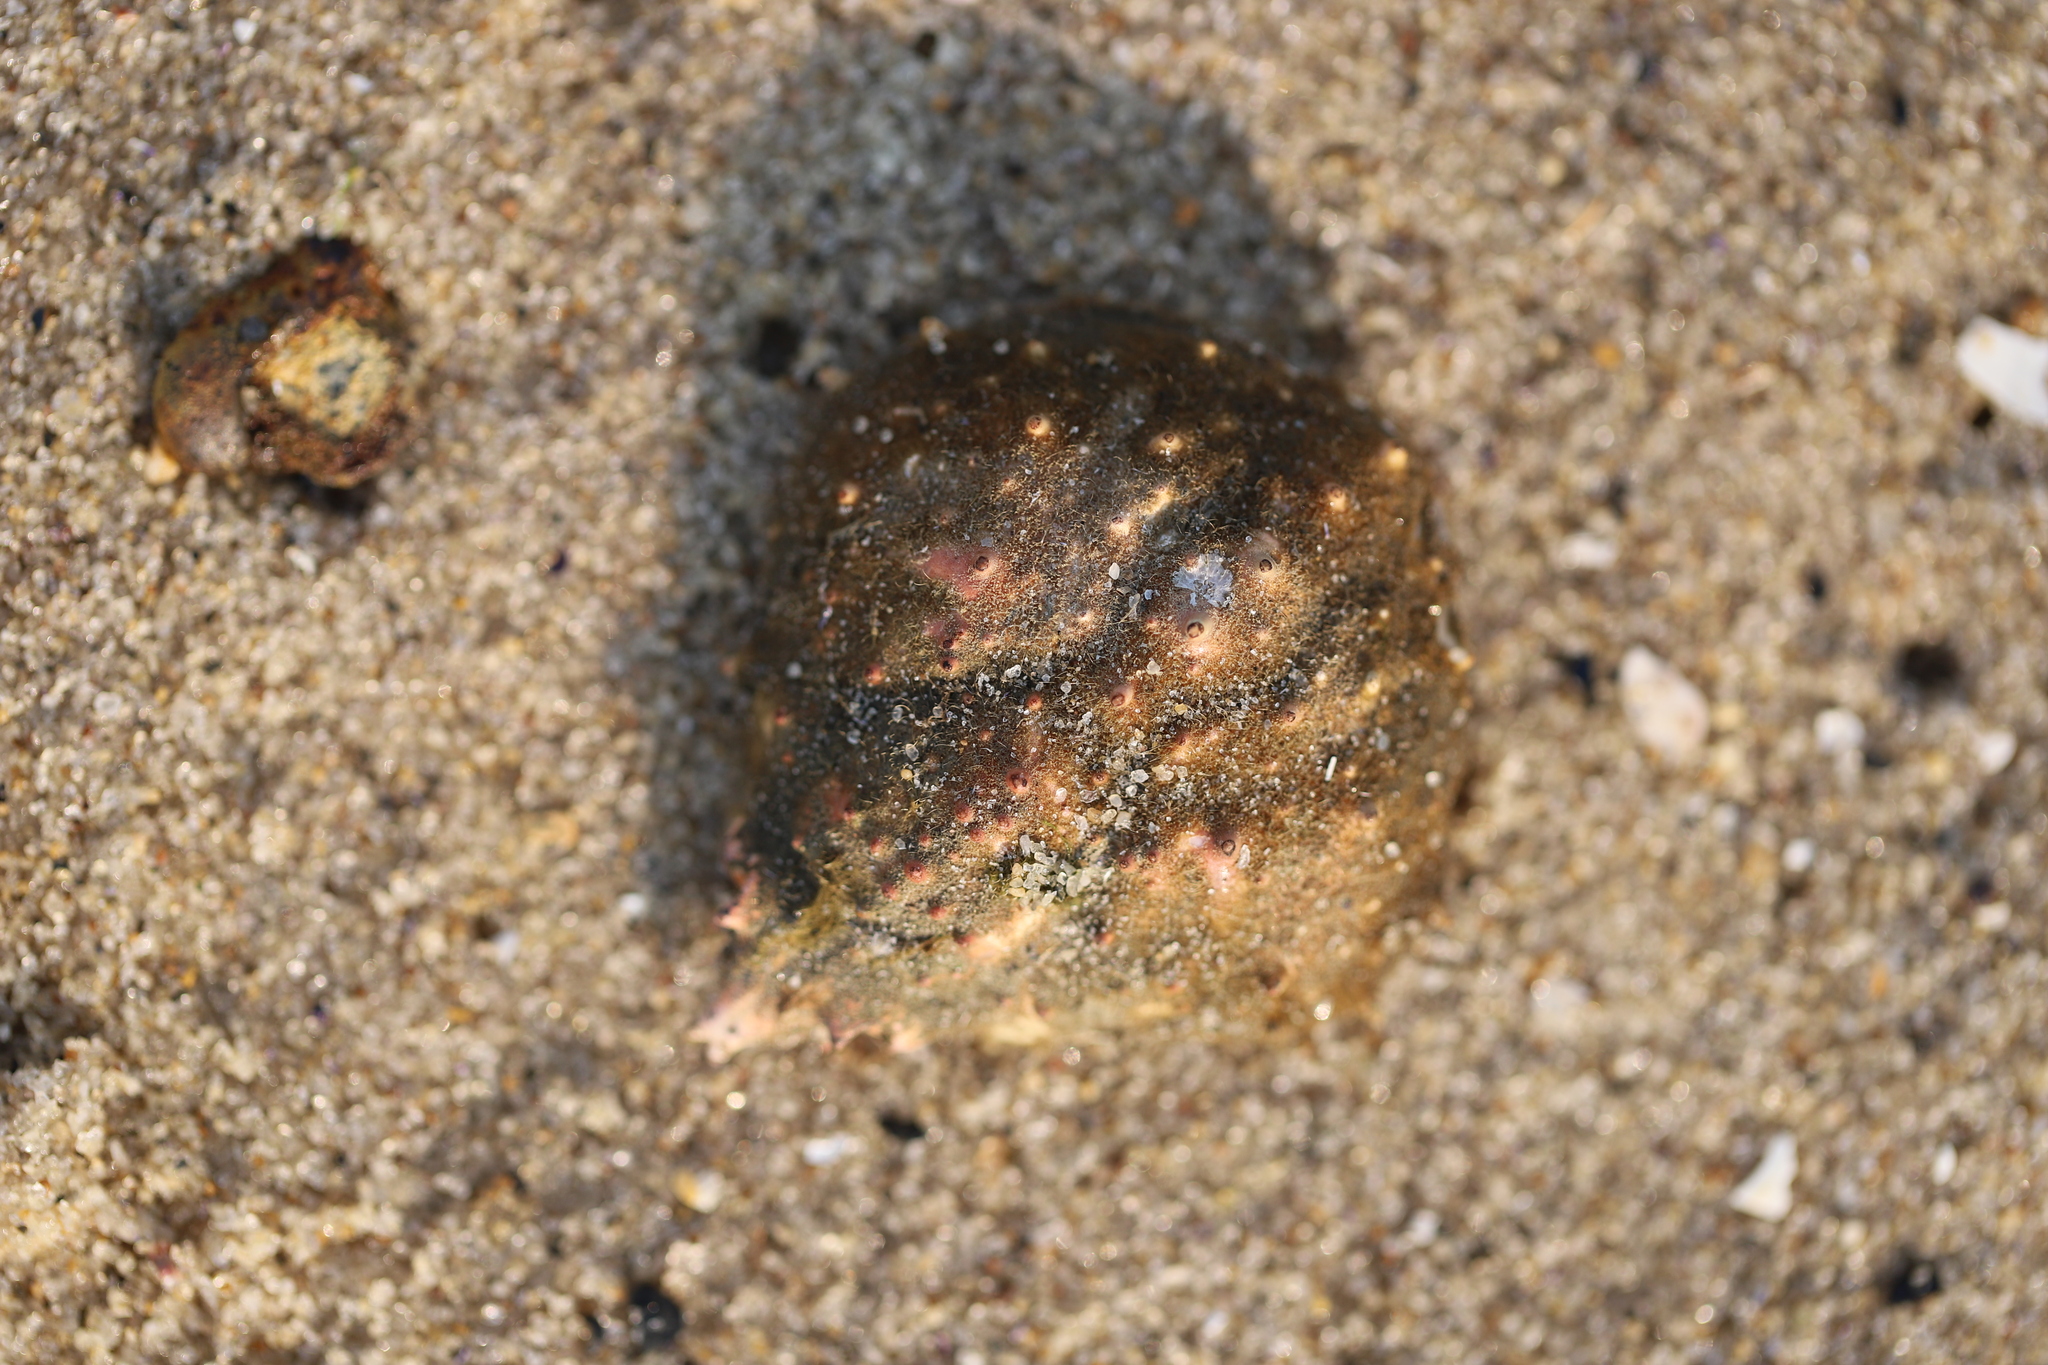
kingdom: Animalia
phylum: Arthropoda
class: Malacostraca
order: Decapoda
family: Epialtidae
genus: Libinia
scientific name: Libinia emarginata
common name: Common spider crab
